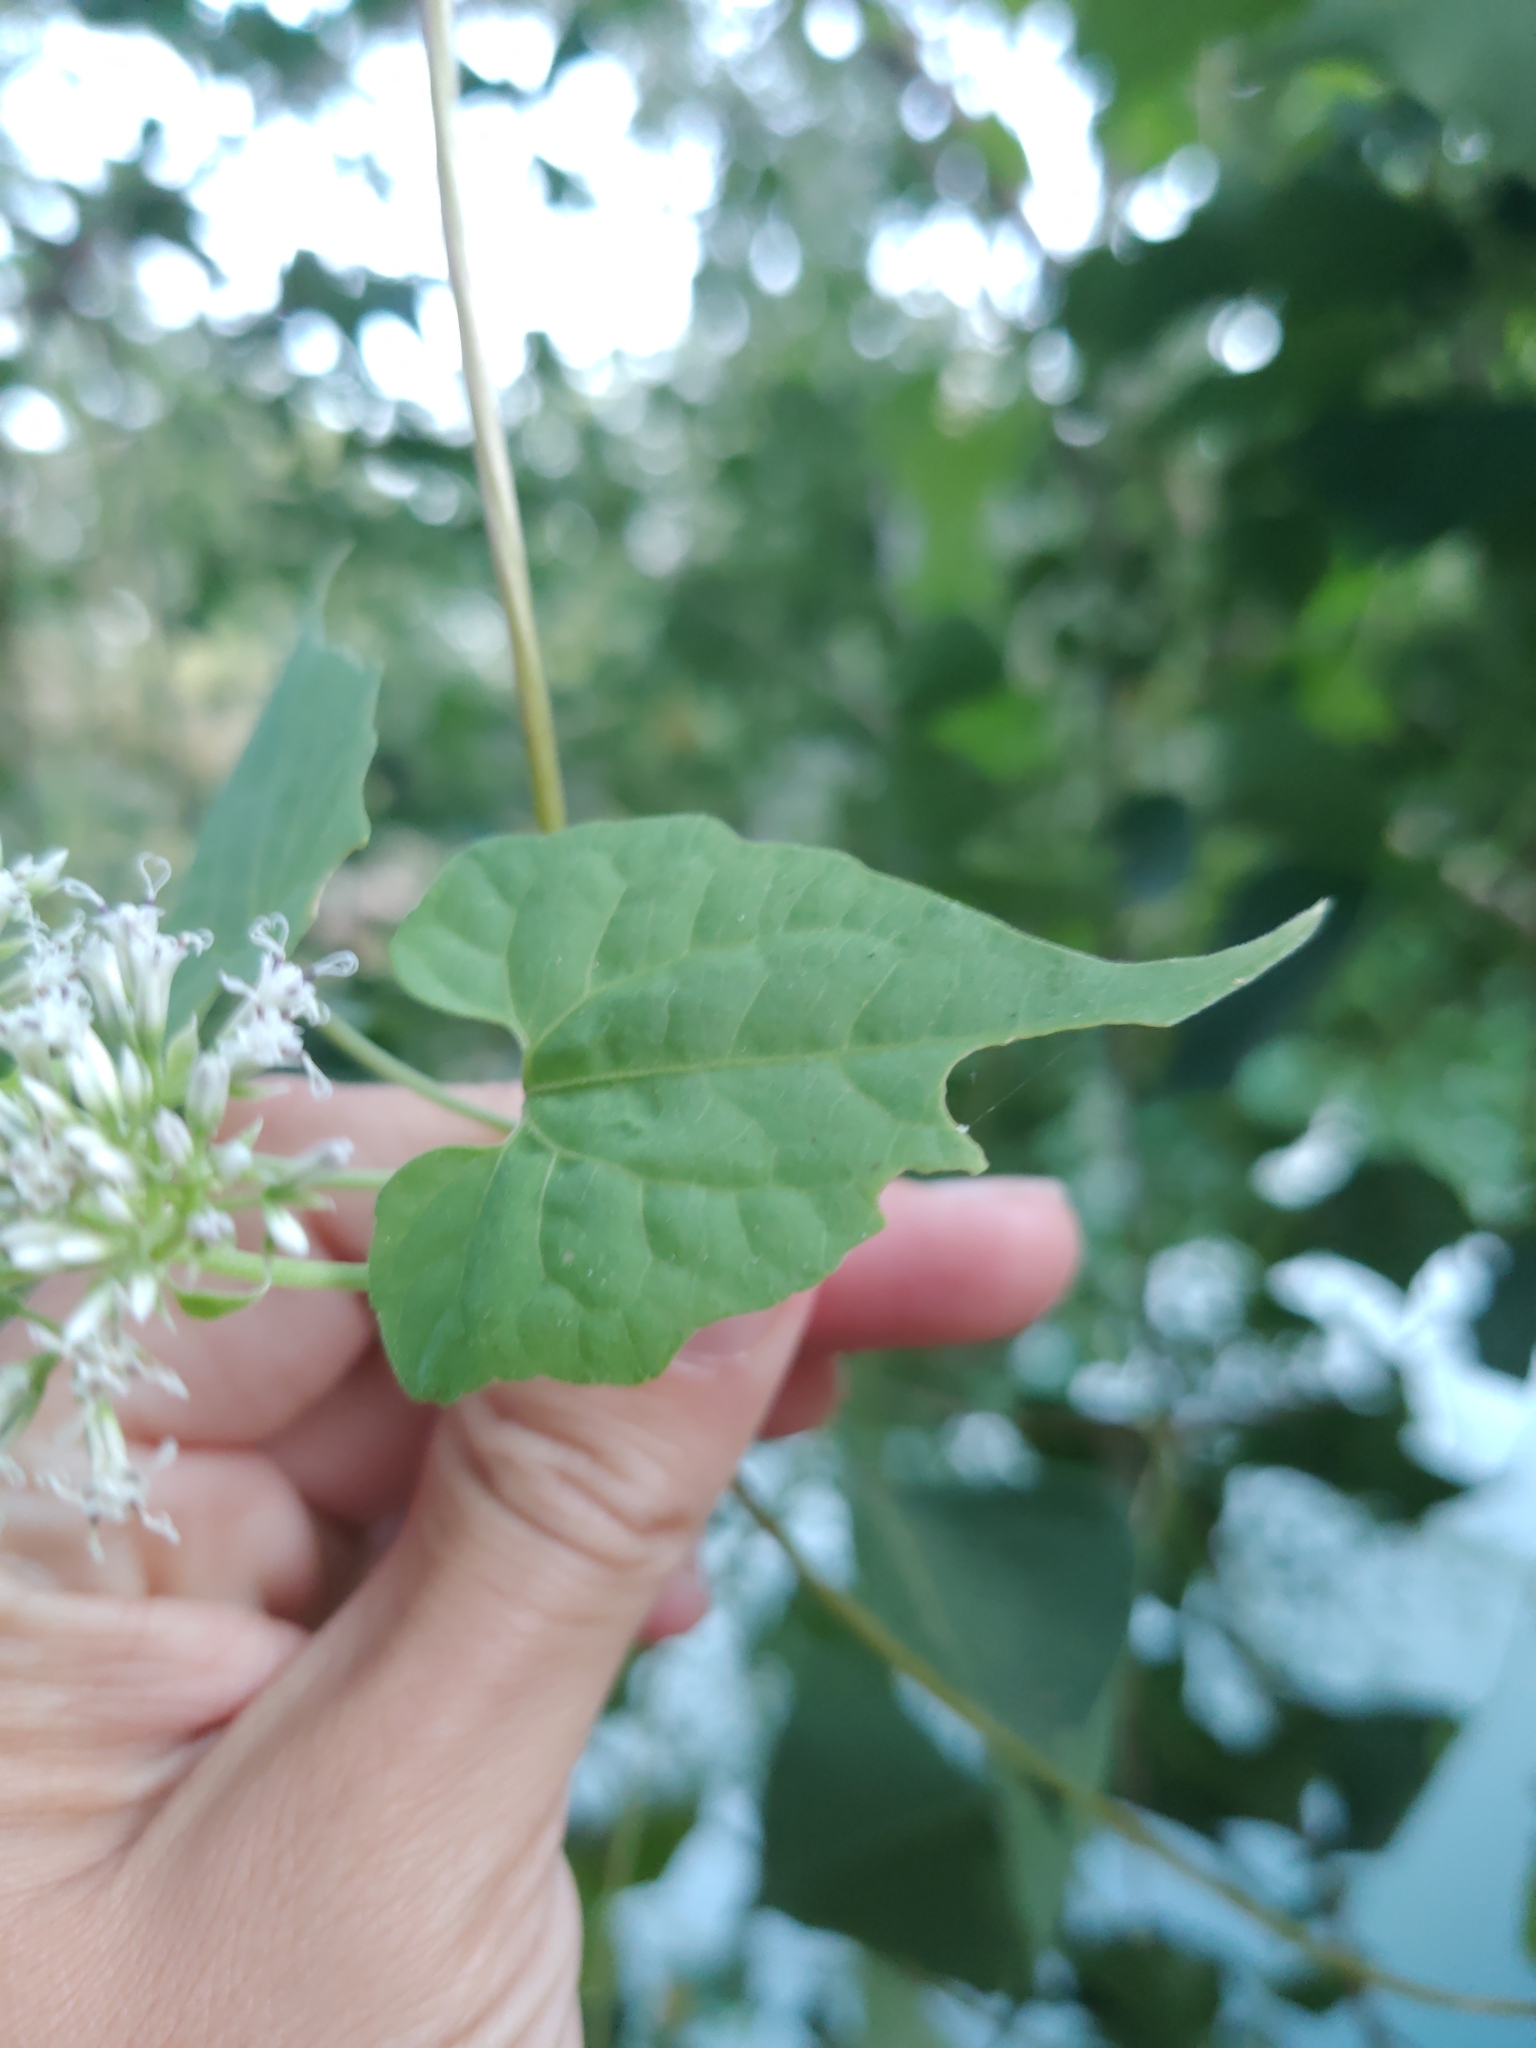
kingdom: Plantae
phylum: Tracheophyta
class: Magnoliopsida
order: Asterales
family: Asteraceae
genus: Mikania
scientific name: Mikania scandens
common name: Climbing hempvine
